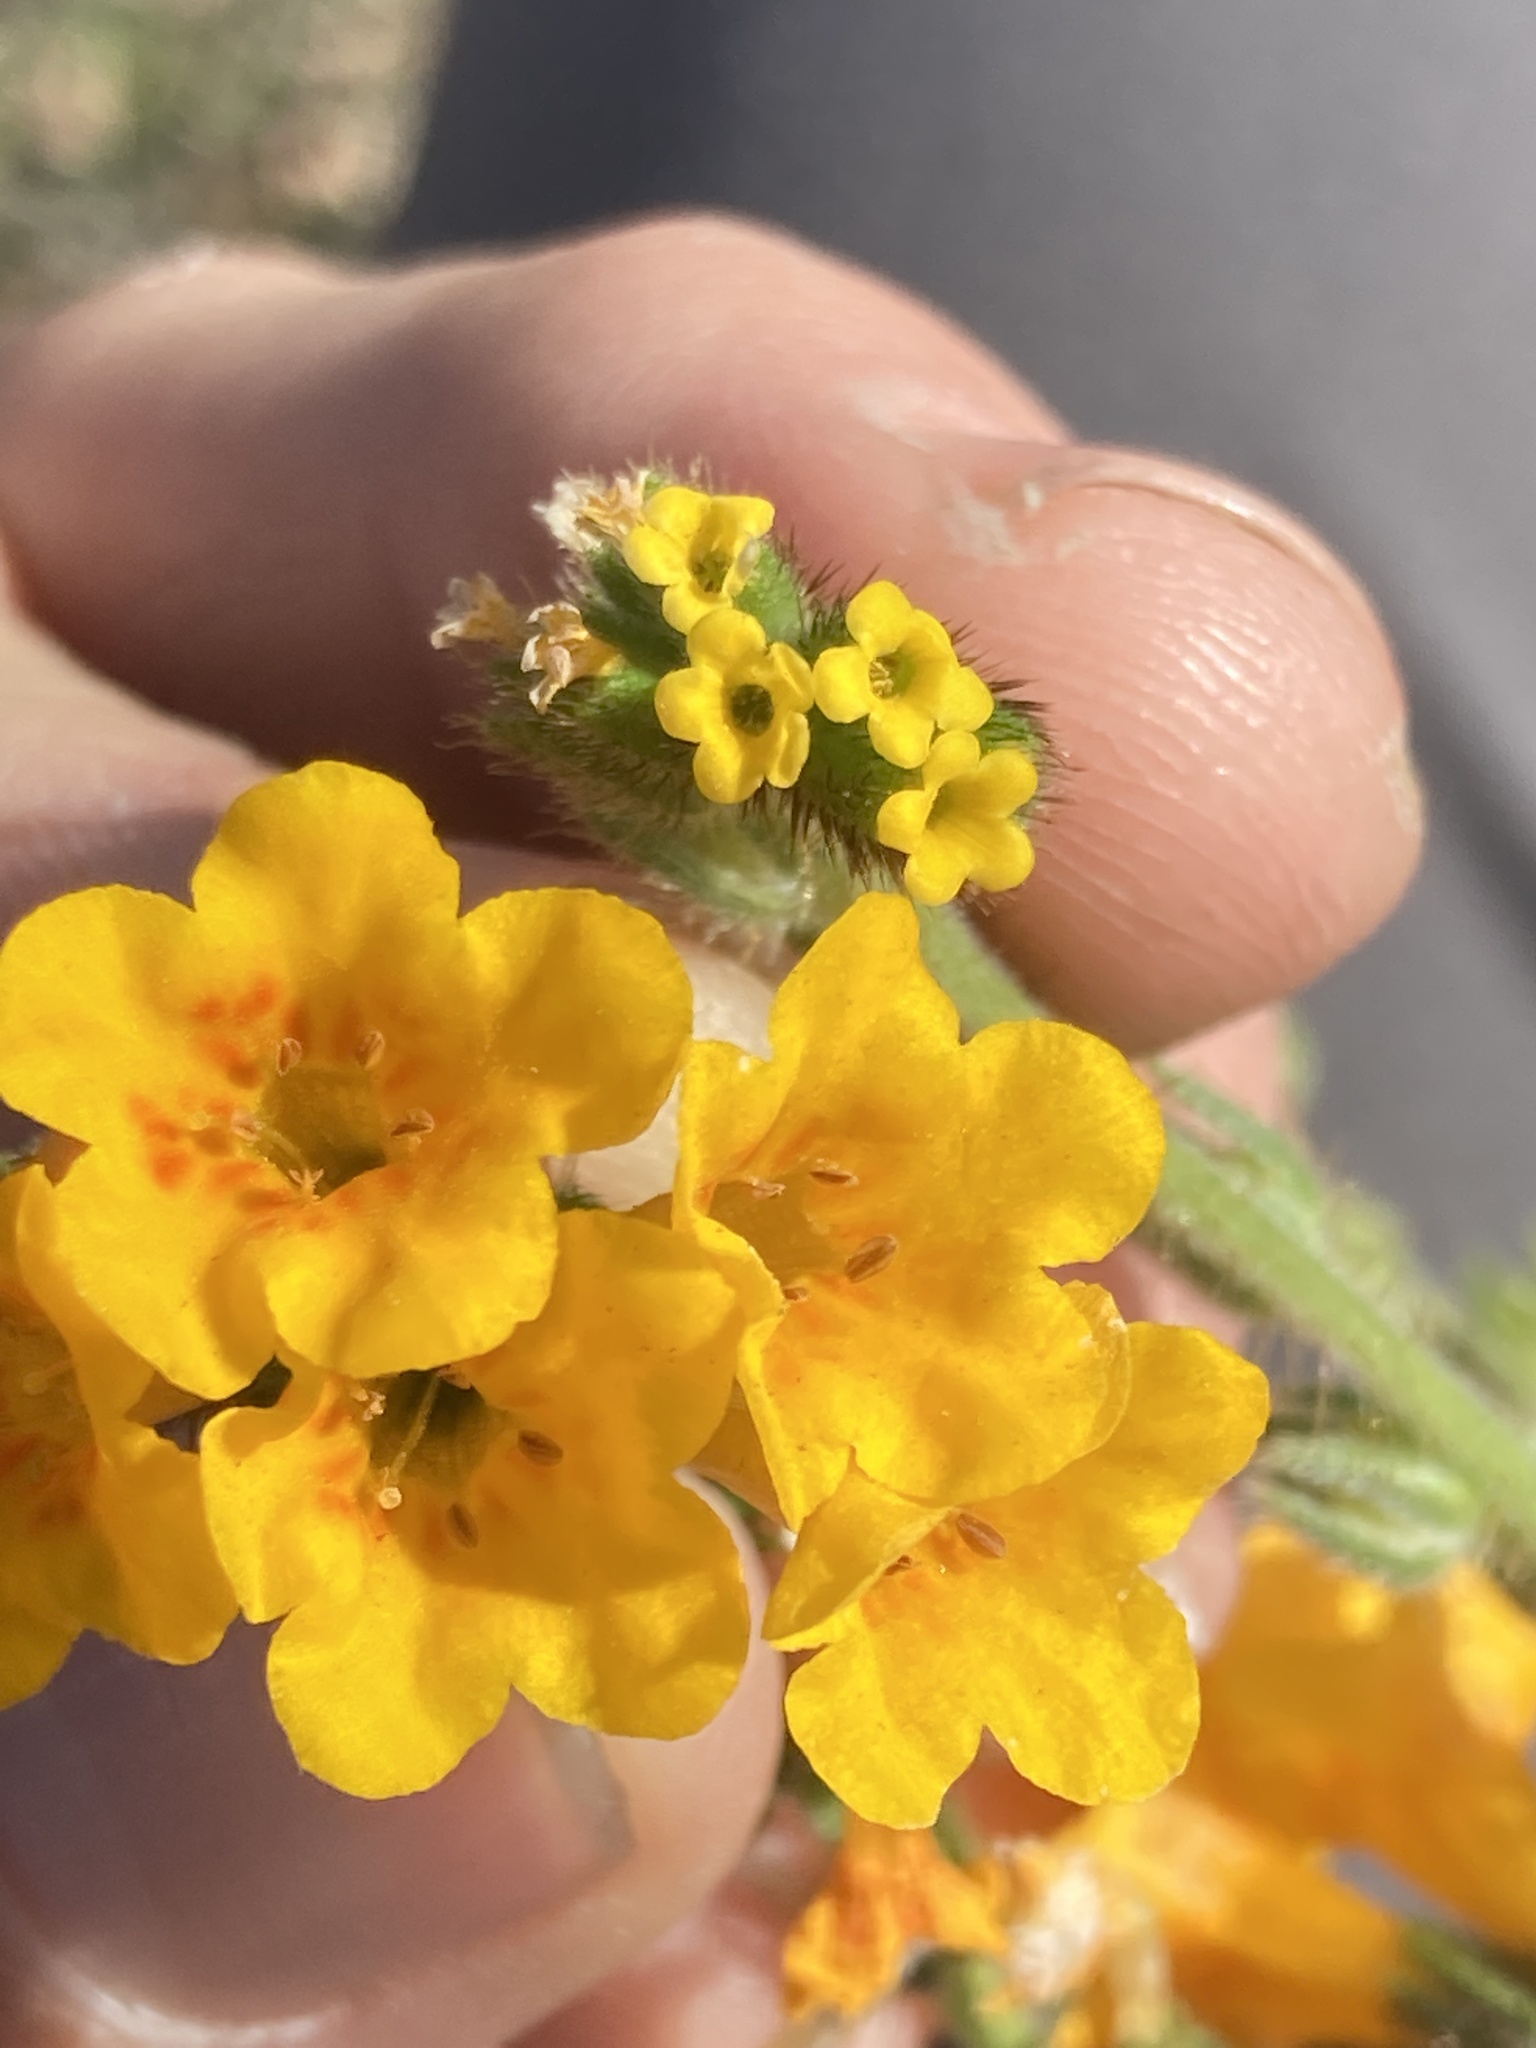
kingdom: Plantae
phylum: Tracheophyta
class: Magnoliopsida
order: Boraginales
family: Boraginaceae
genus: Amsinckia
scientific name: Amsinckia eastwoodiae
